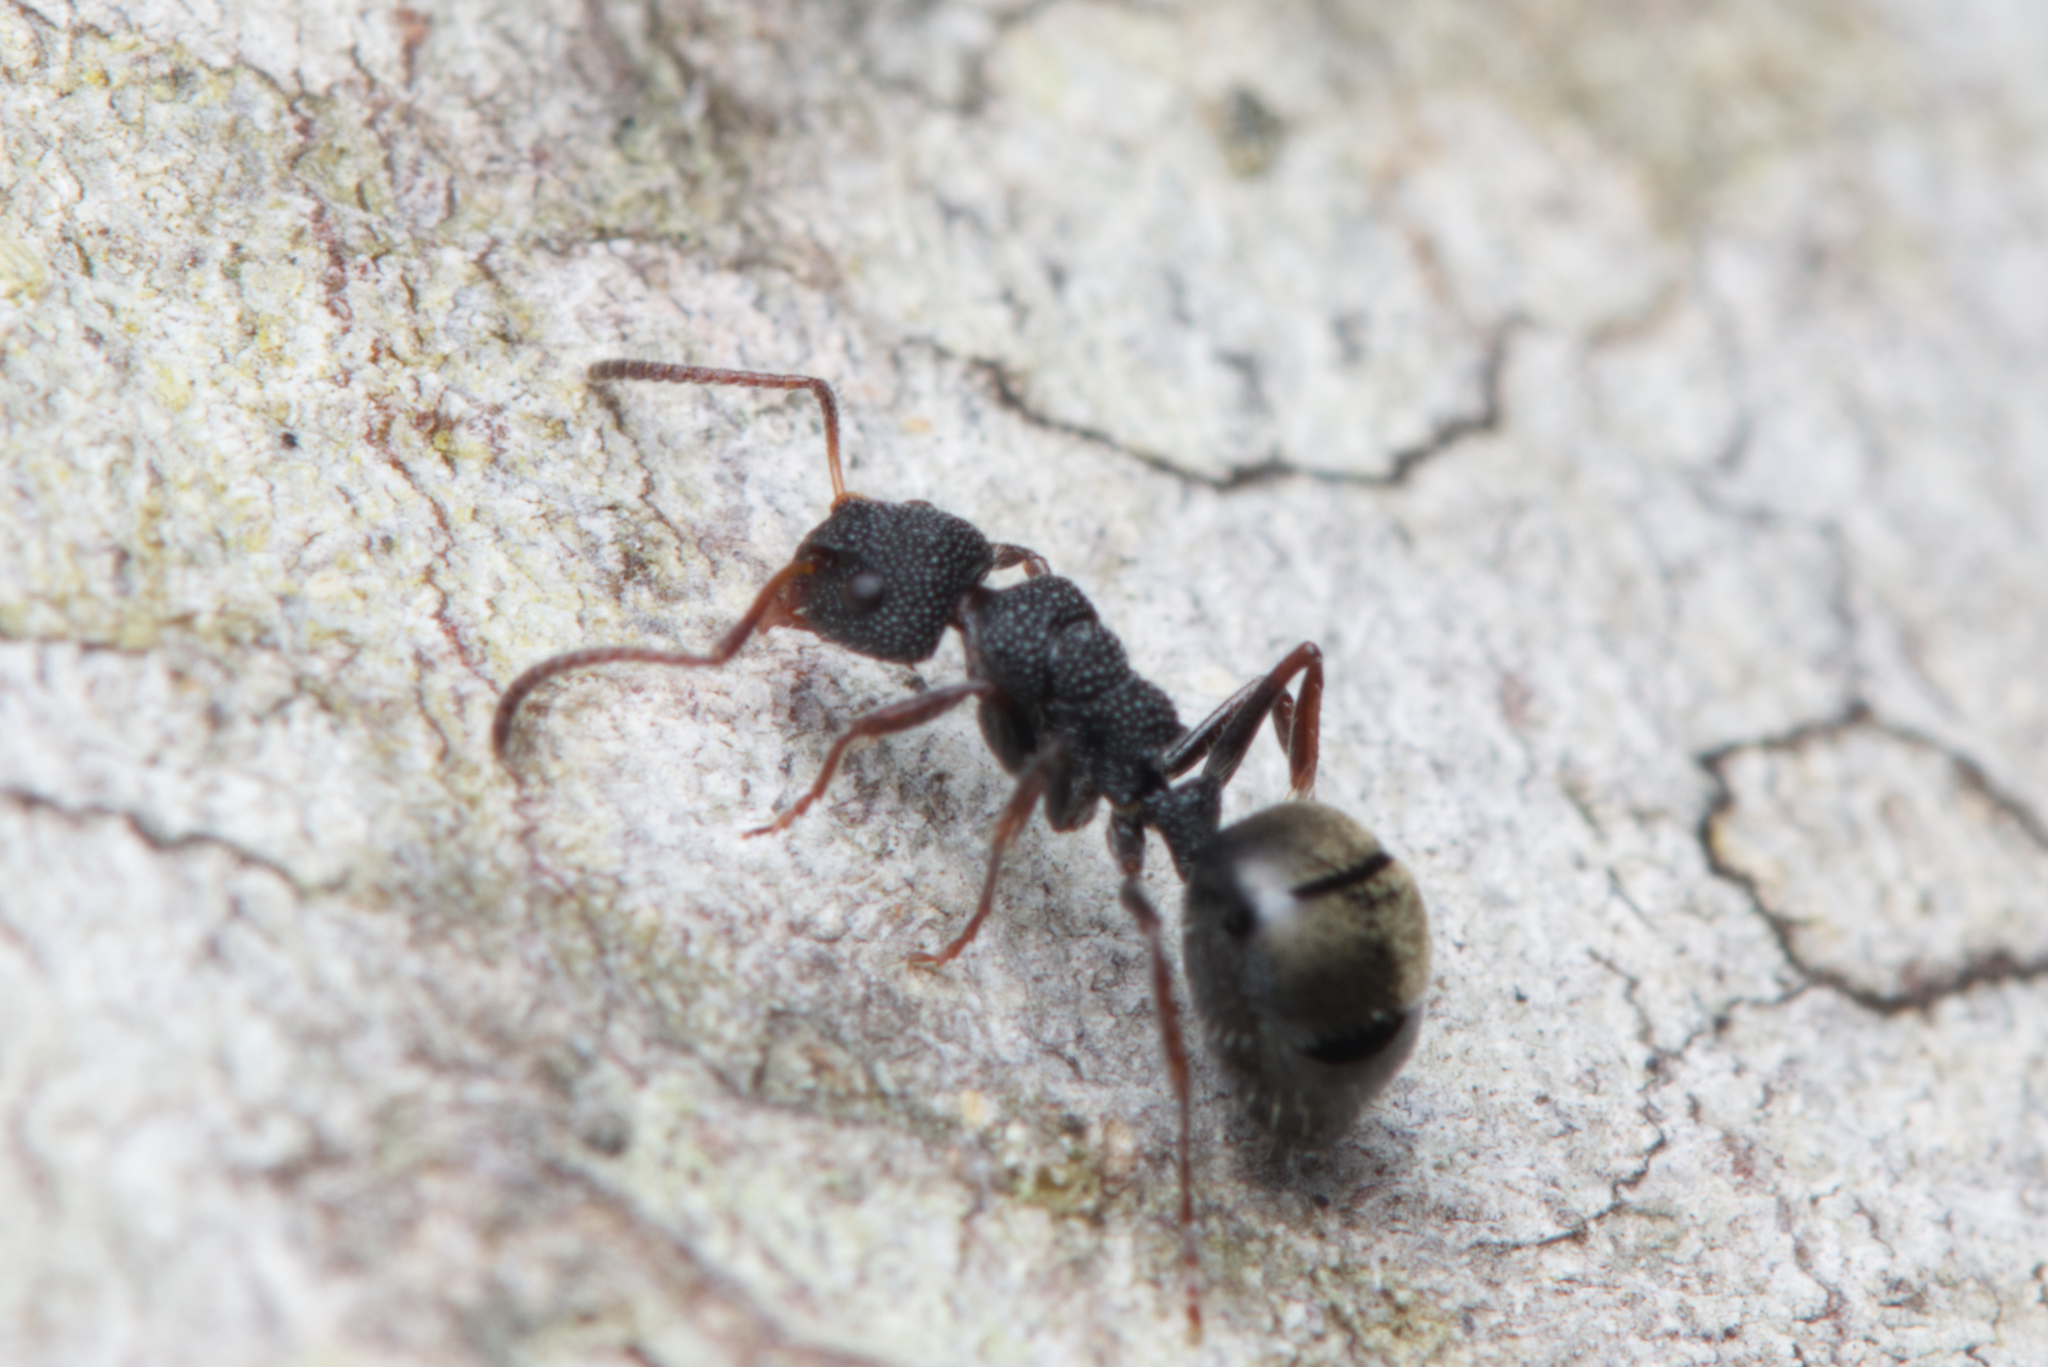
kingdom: Animalia
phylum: Arthropoda
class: Insecta
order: Hymenoptera
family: Formicidae
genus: Dolichoderus
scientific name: Dolichoderus scrobiculatus
